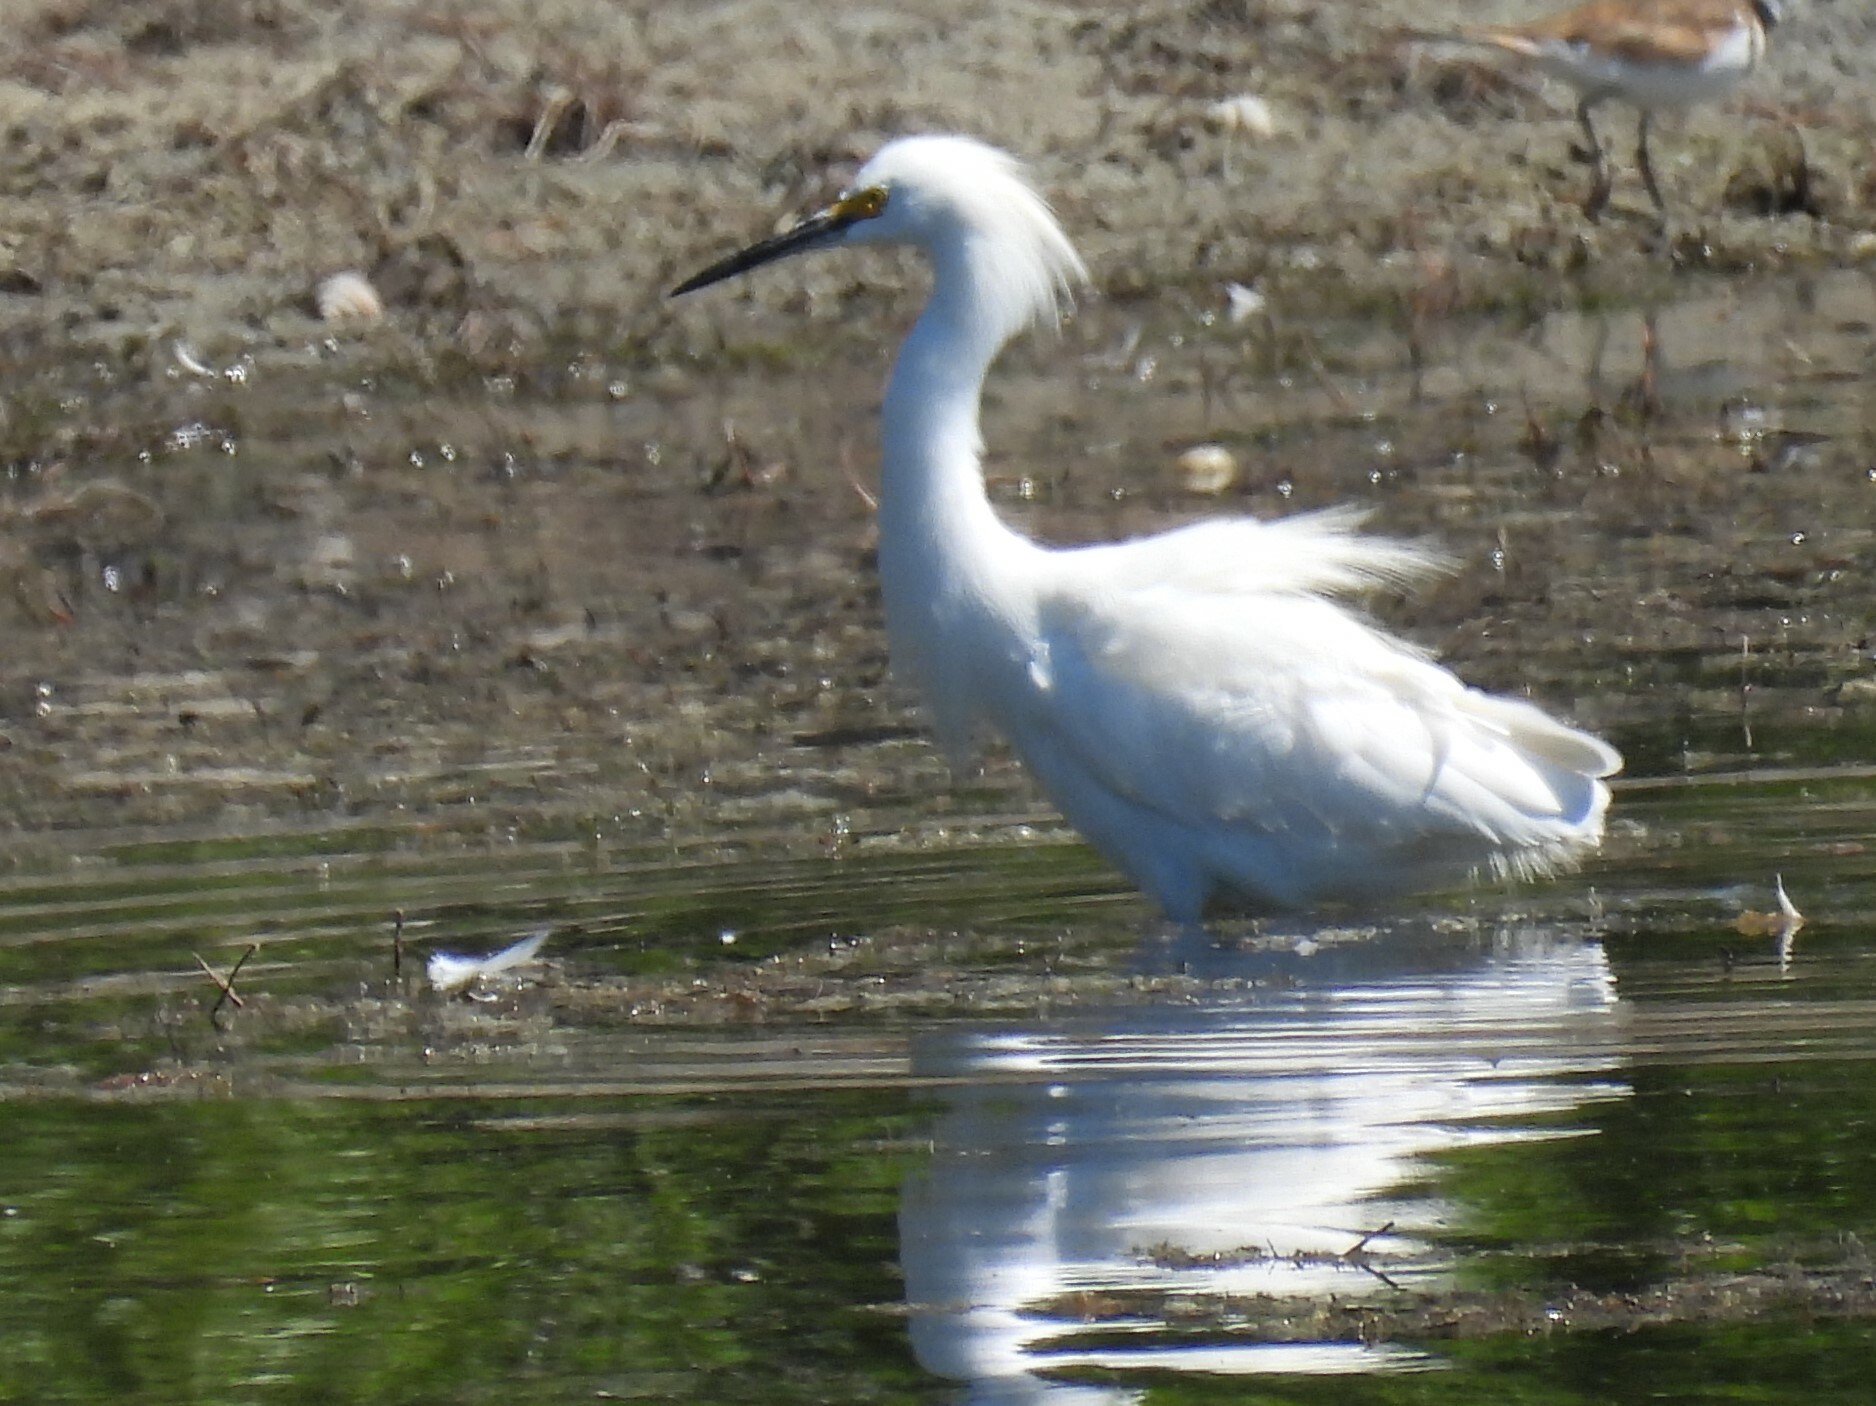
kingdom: Animalia
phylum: Chordata
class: Aves
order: Pelecaniformes
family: Ardeidae
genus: Egretta
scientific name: Egretta thula
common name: Snowy egret
